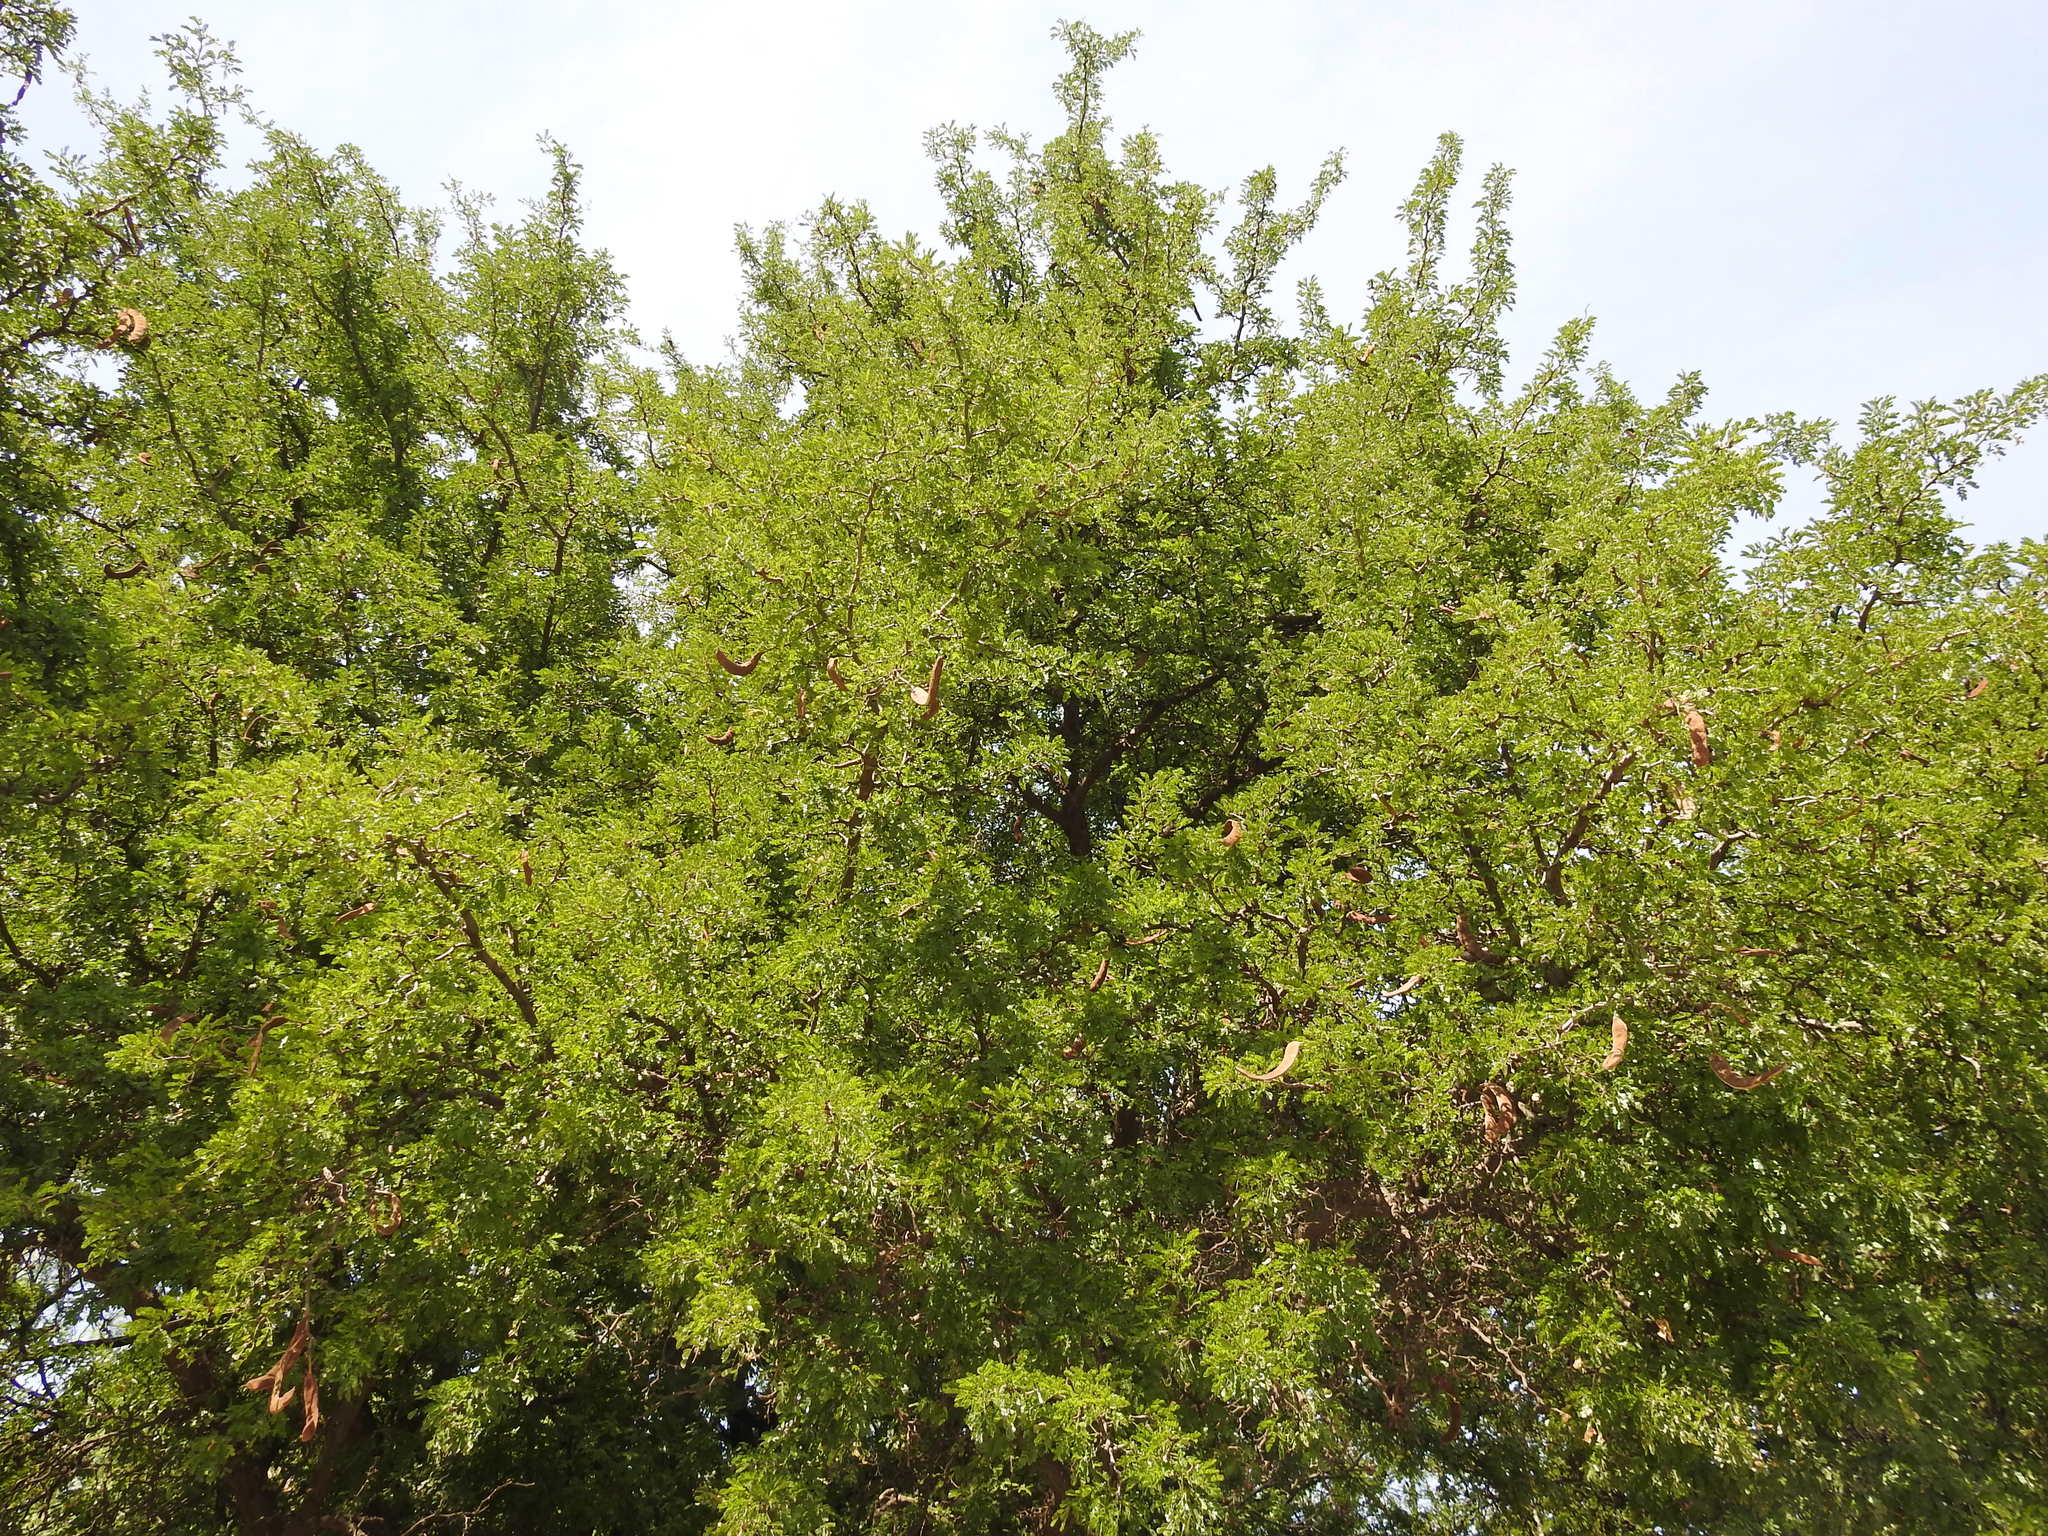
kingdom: Plantae
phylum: Tracheophyta
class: Magnoliopsida
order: Fabales
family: Fabaceae
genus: Ebenopsis
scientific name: Ebenopsis ebano
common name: Ebony blackbead
